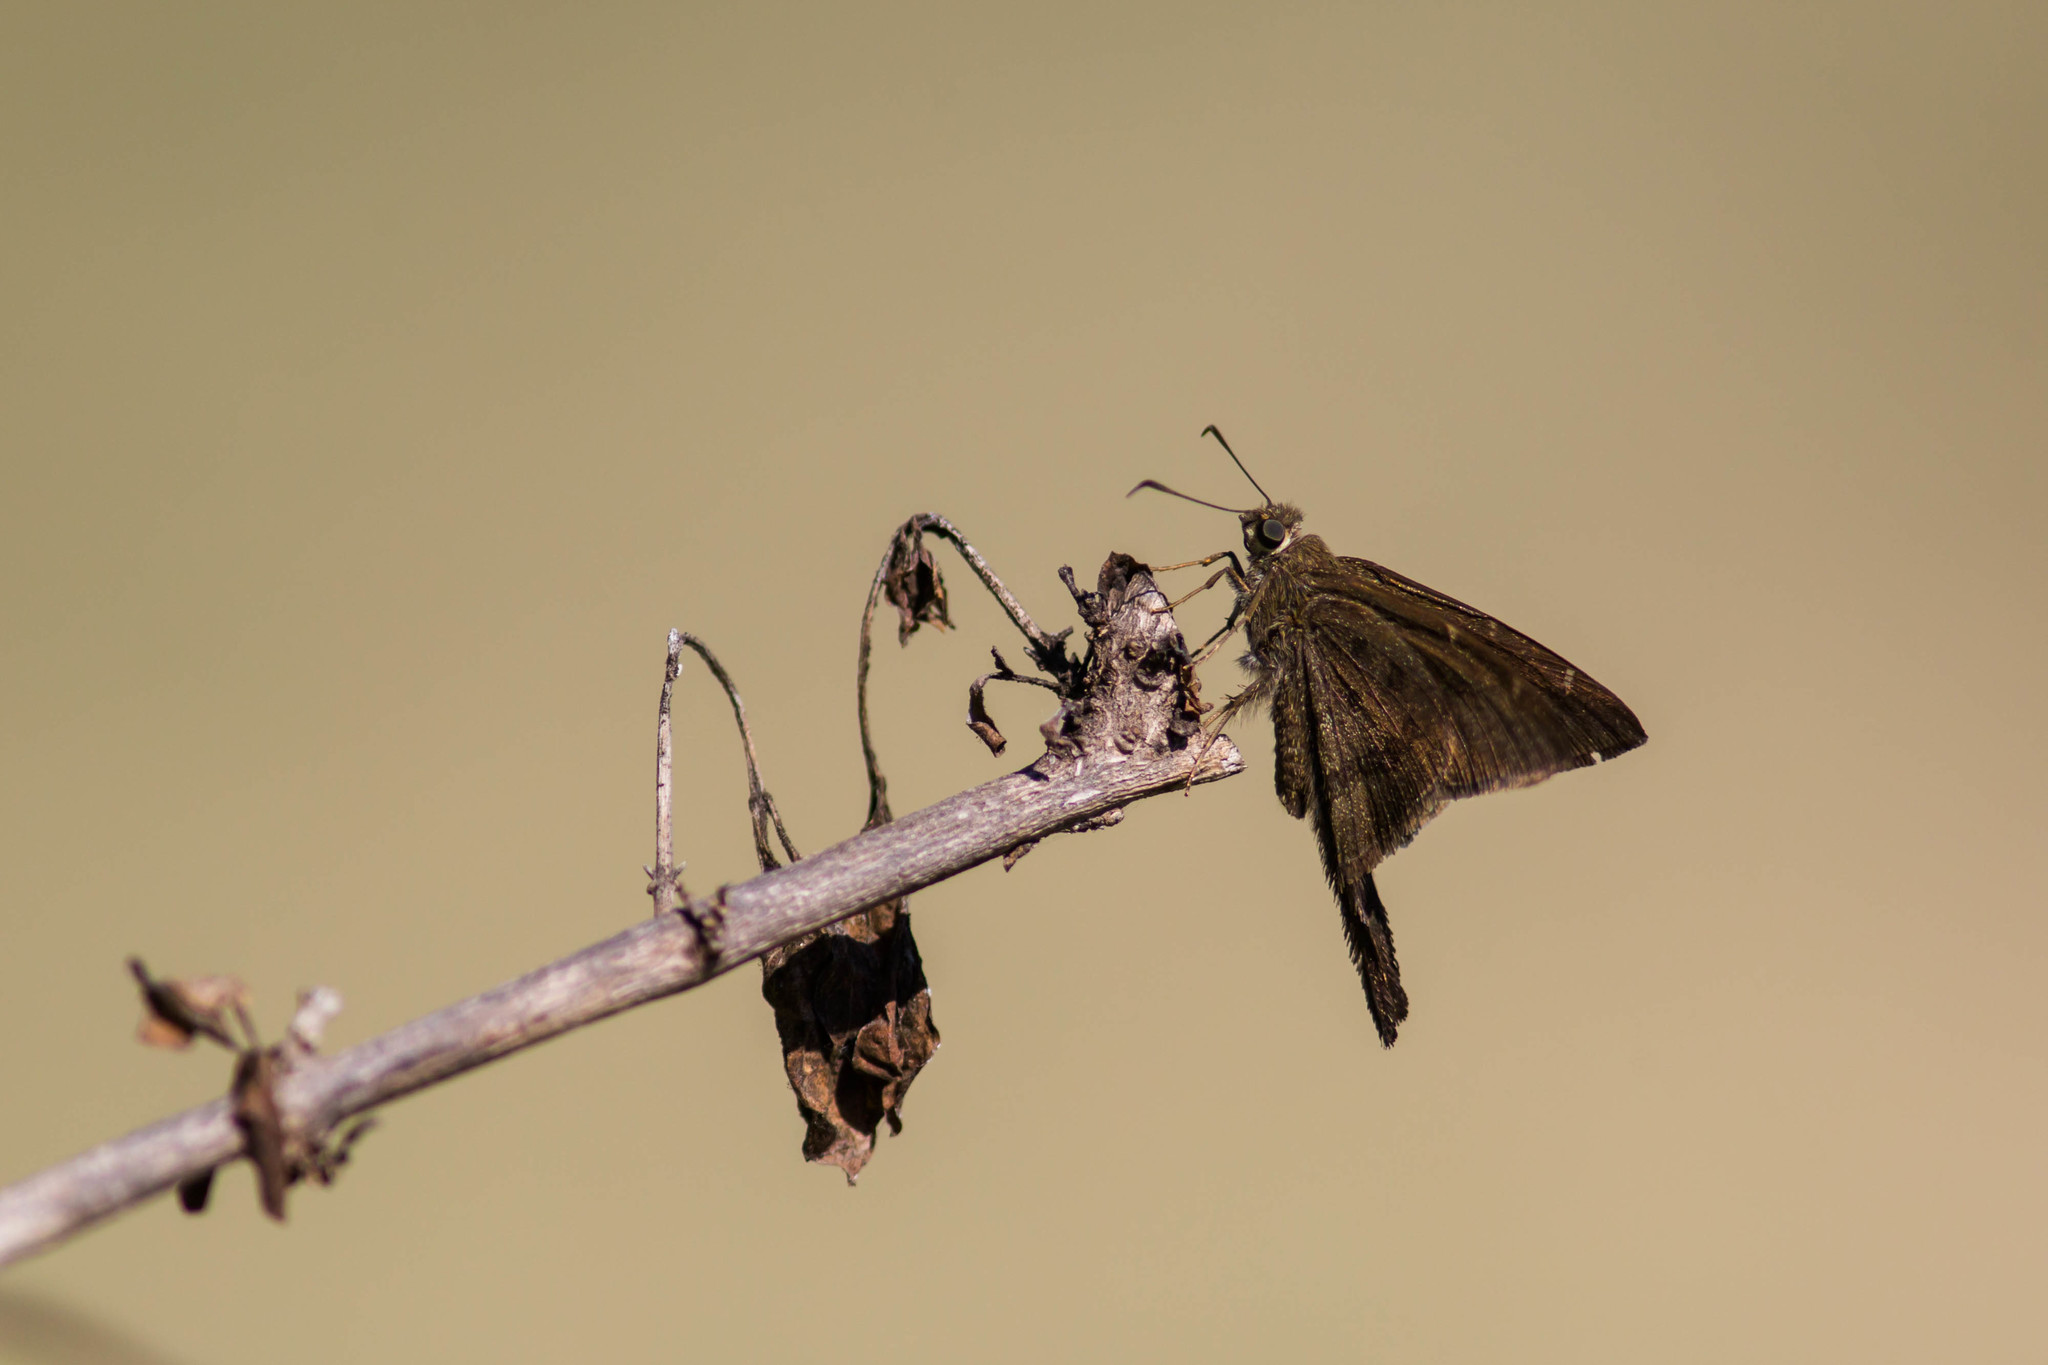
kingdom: Animalia
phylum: Arthropoda
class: Insecta
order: Lepidoptera
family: Hesperiidae
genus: Urbanus
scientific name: Urbanus procne
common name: Brown longtail
